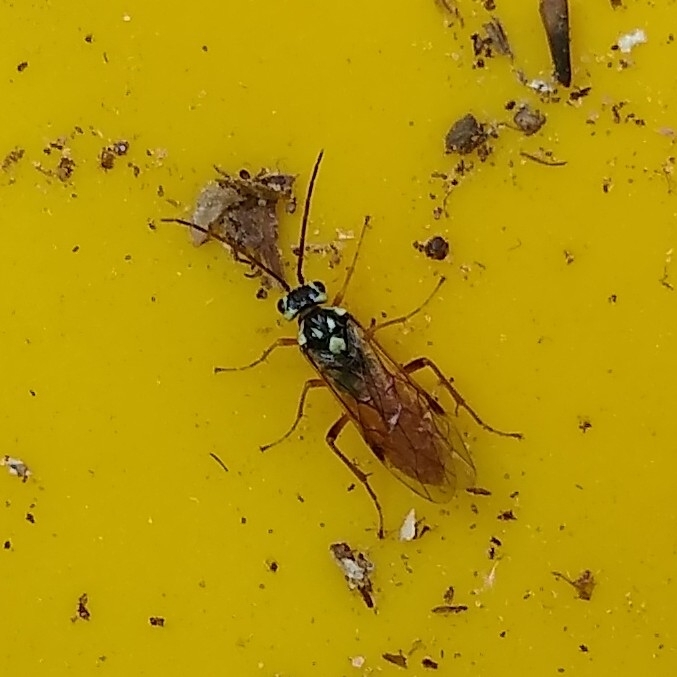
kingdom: Animalia
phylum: Arthropoda
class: Insecta
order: Hymenoptera
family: Tenthredinidae
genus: Aglaostigma
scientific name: Aglaostigma
